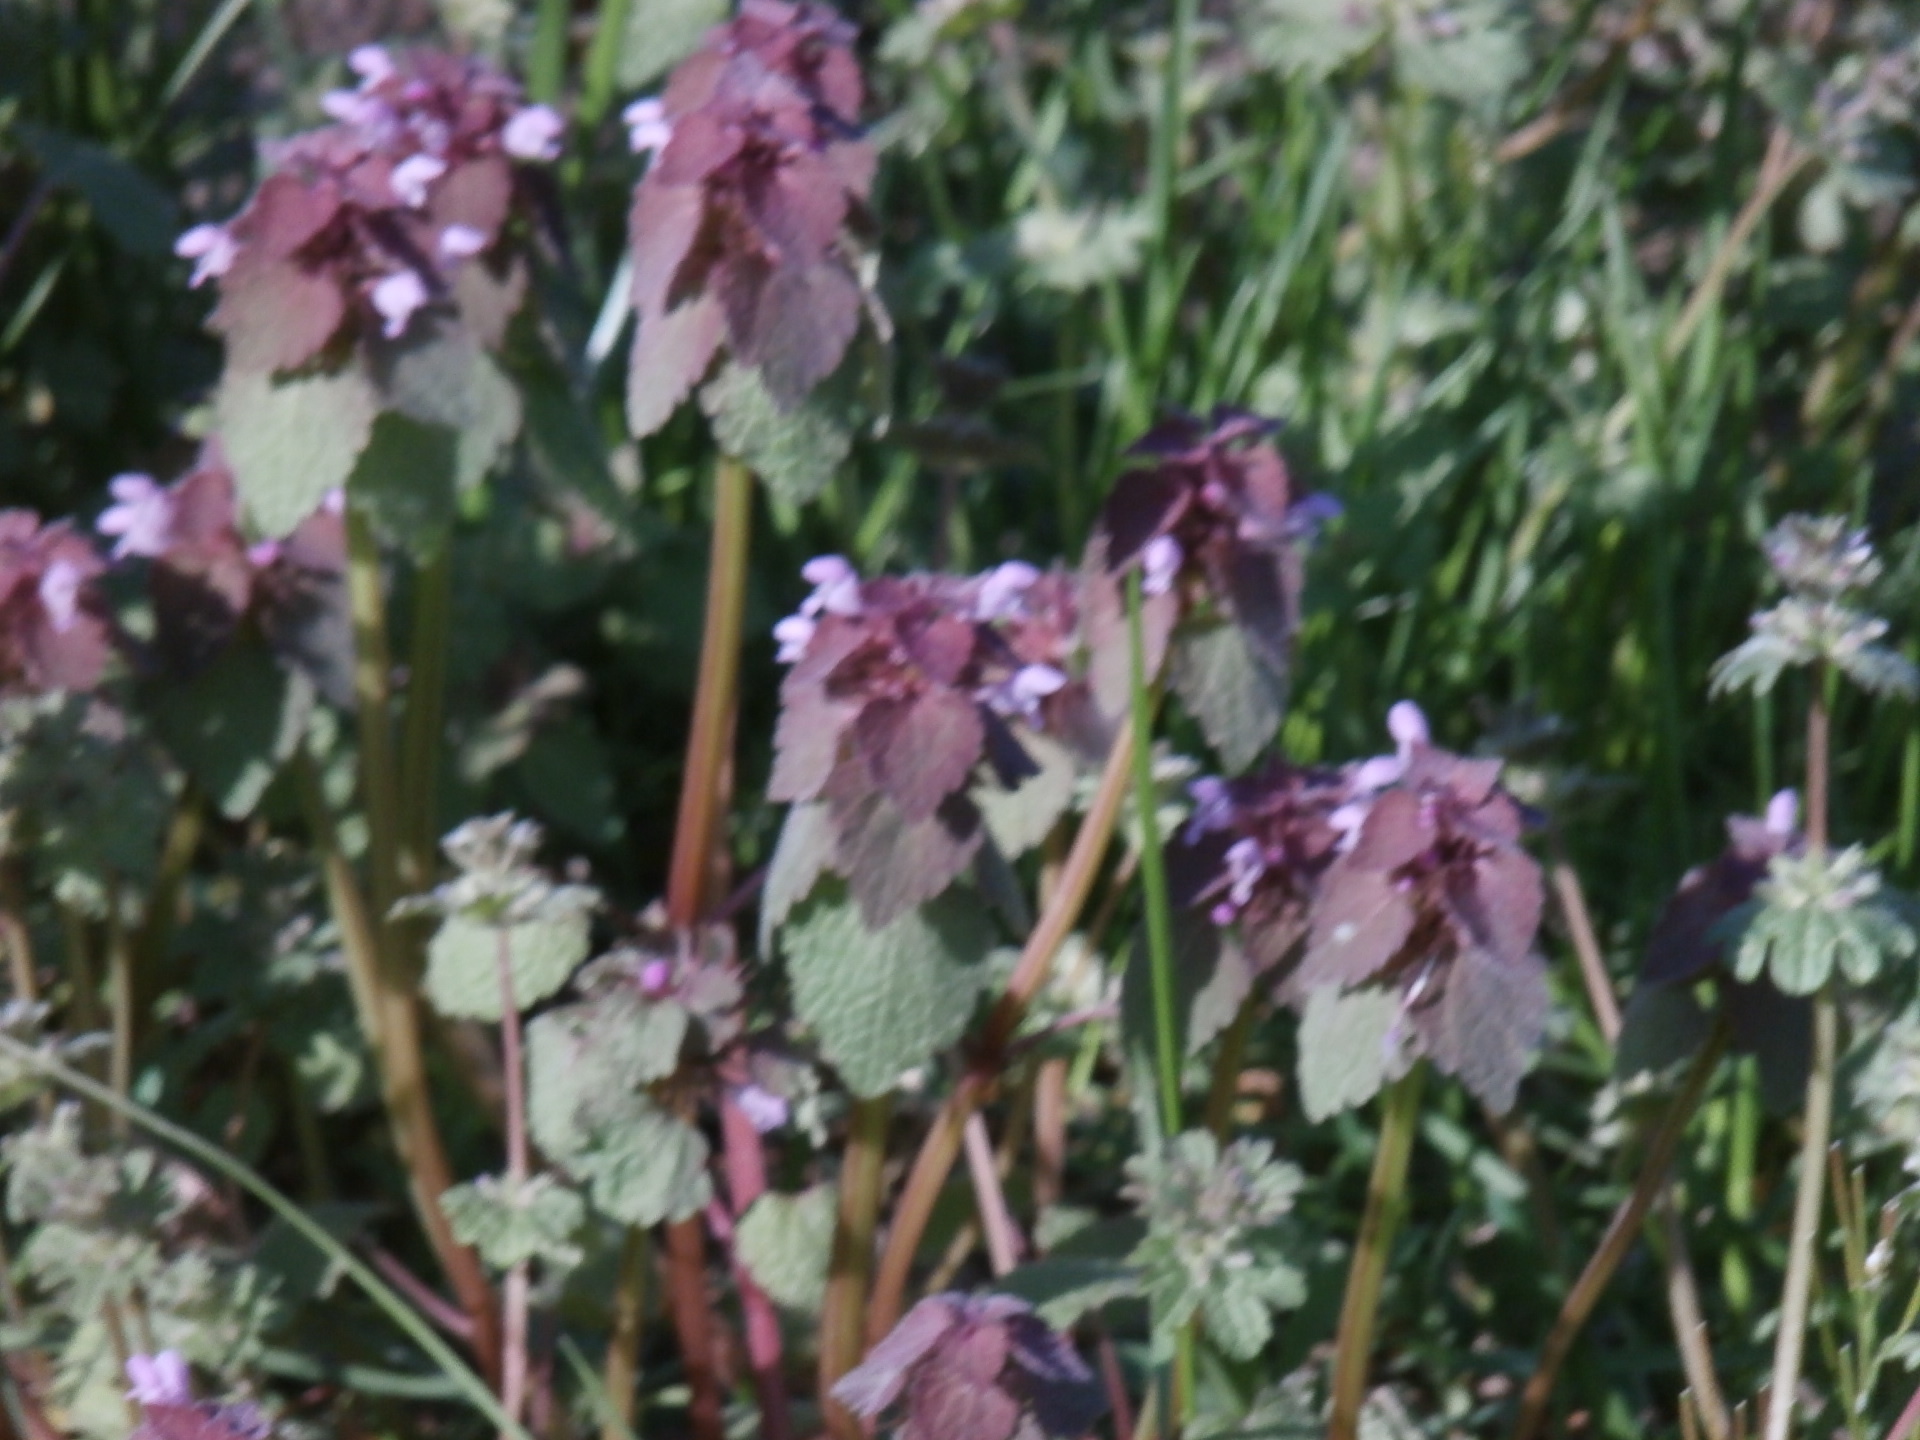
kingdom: Plantae
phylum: Tracheophyta
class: Magnoliopsida
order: Lamiales
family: Lamiaceae
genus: Lamium
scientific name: Lamium purpureum
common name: Red dead-nettle
